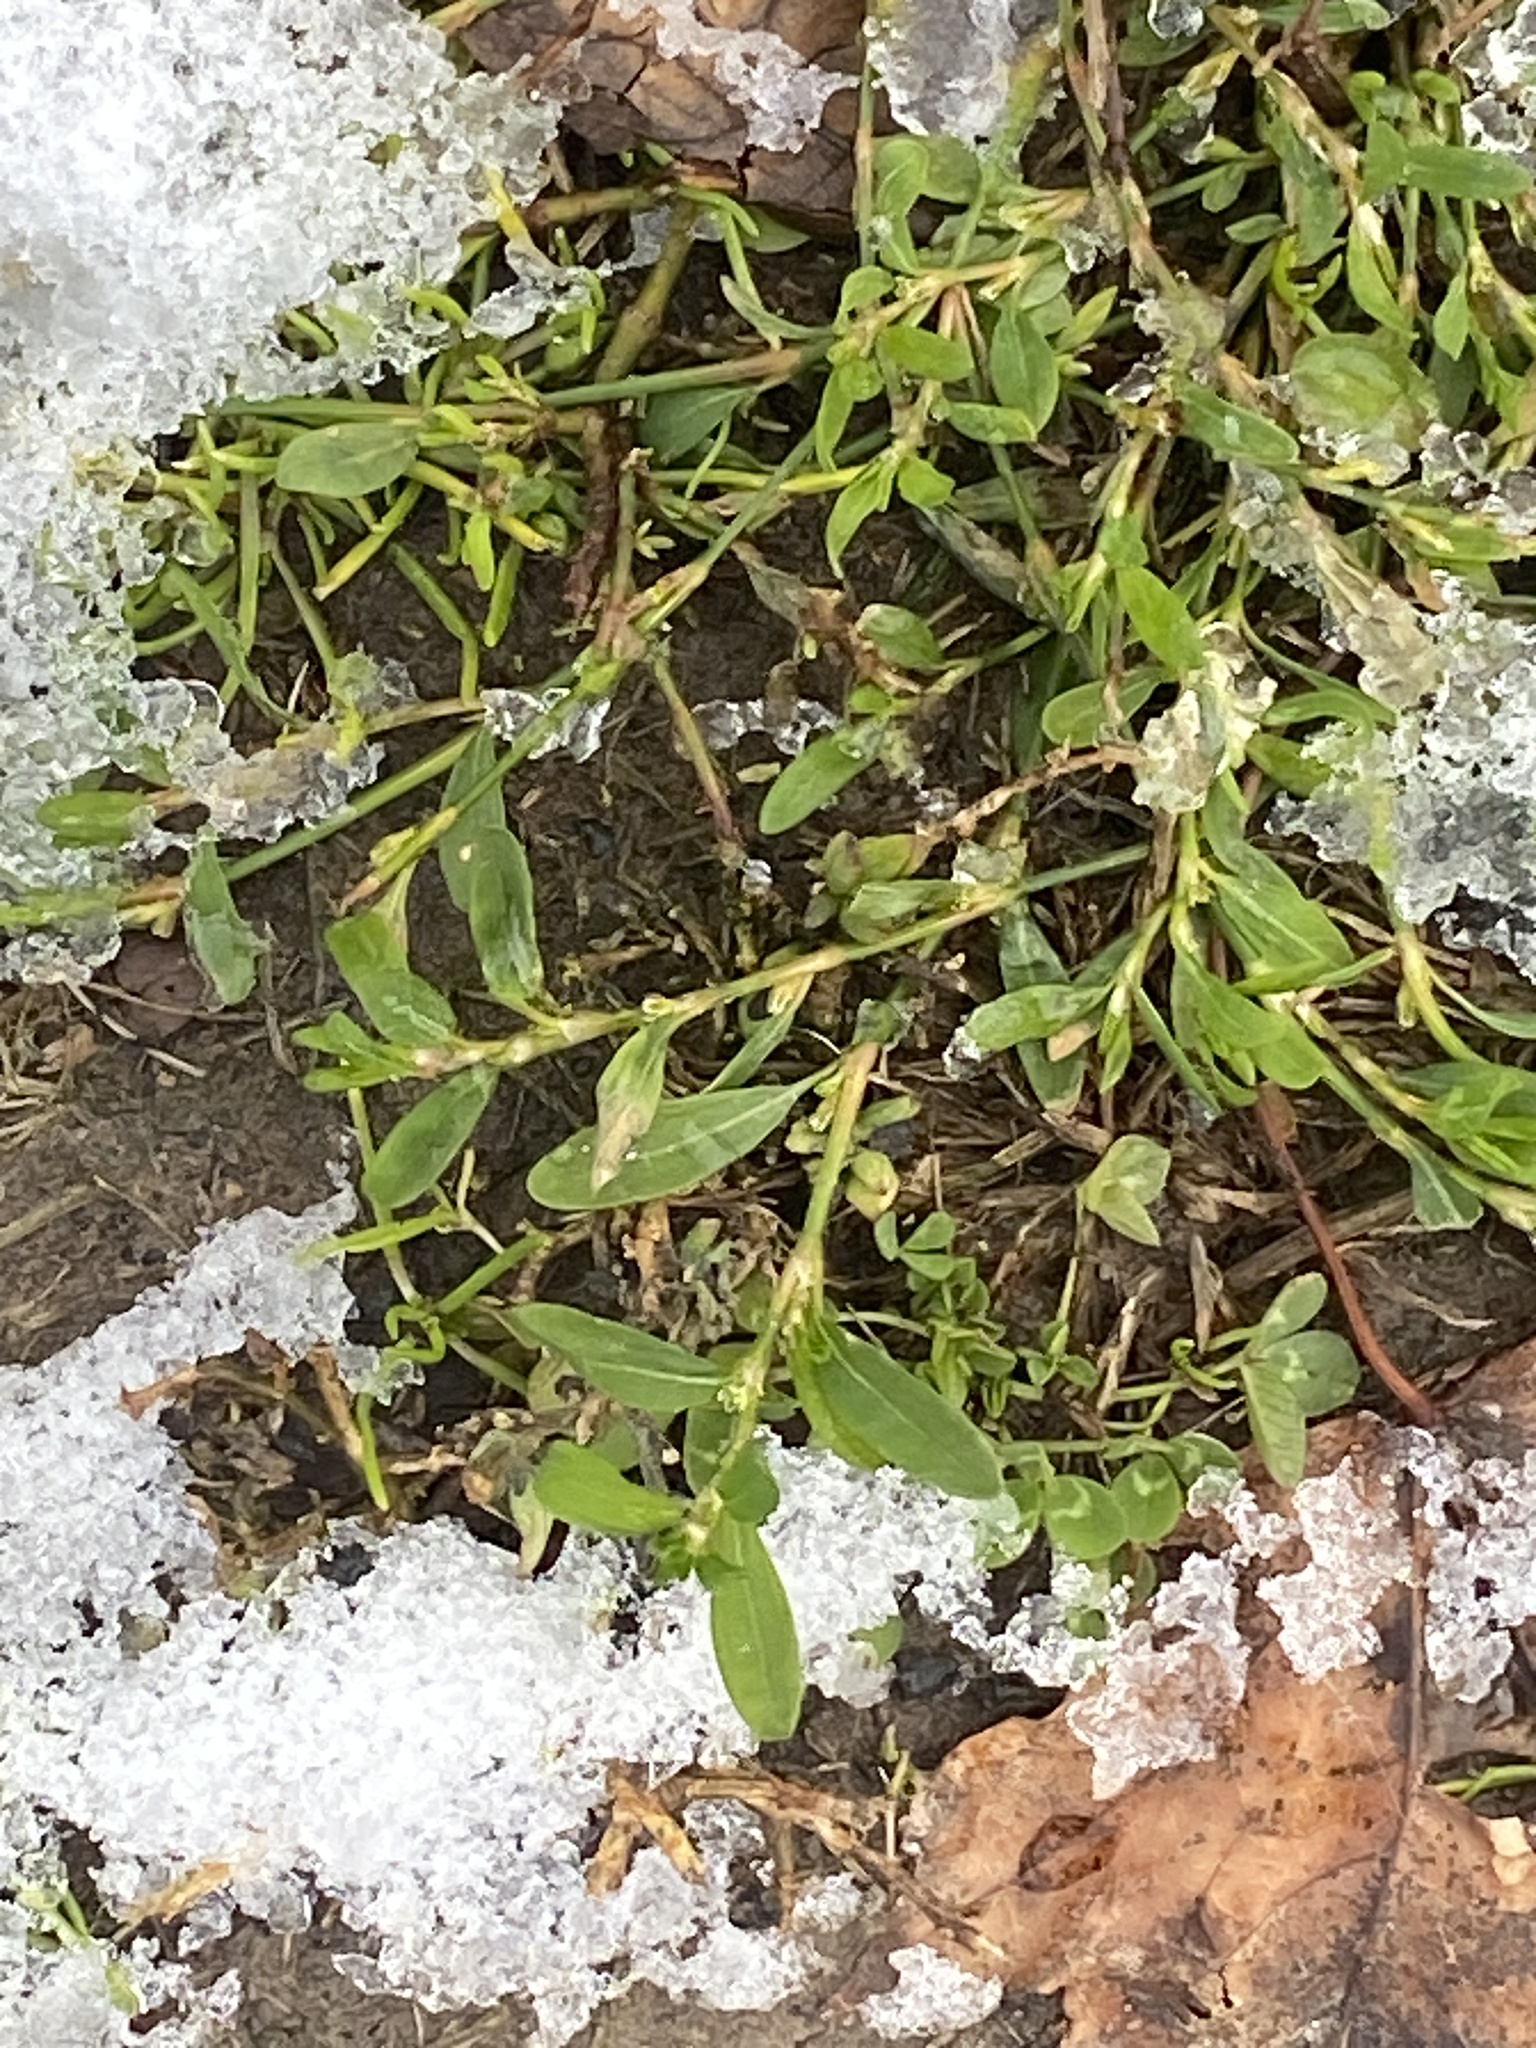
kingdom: Plantae
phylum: Tracheophyta
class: Magnoliopsida
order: Caryophyllales
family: Polygonaceae
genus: Polygonum
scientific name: Polygonum aviculare
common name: Prostrate knotweed
